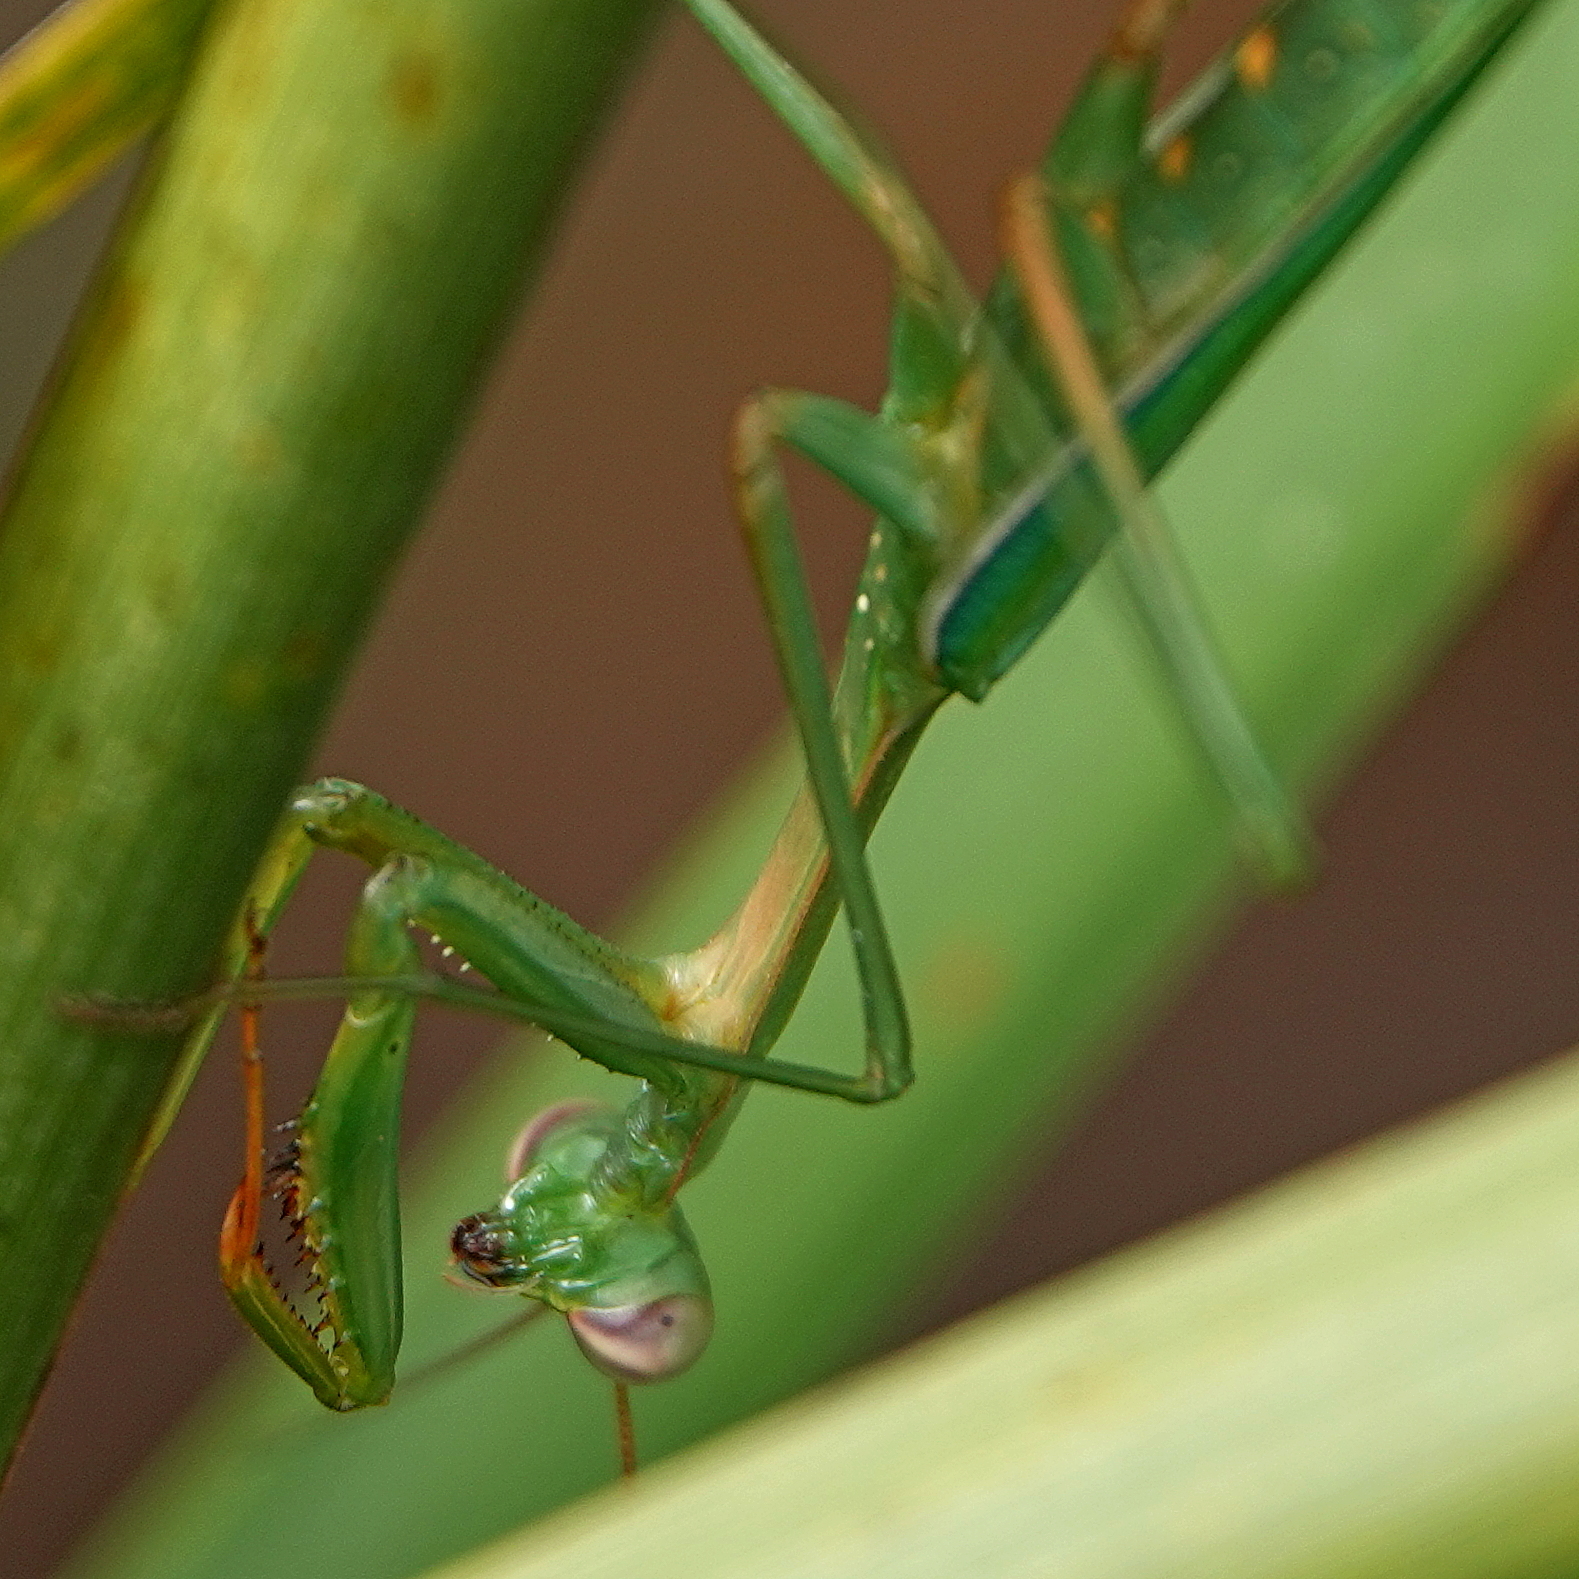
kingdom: Animalia
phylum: Arthropoda
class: Insecta
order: Mantodea
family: Mantidae
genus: Pseudomantis
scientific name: Pseudomantis albofimbriata
